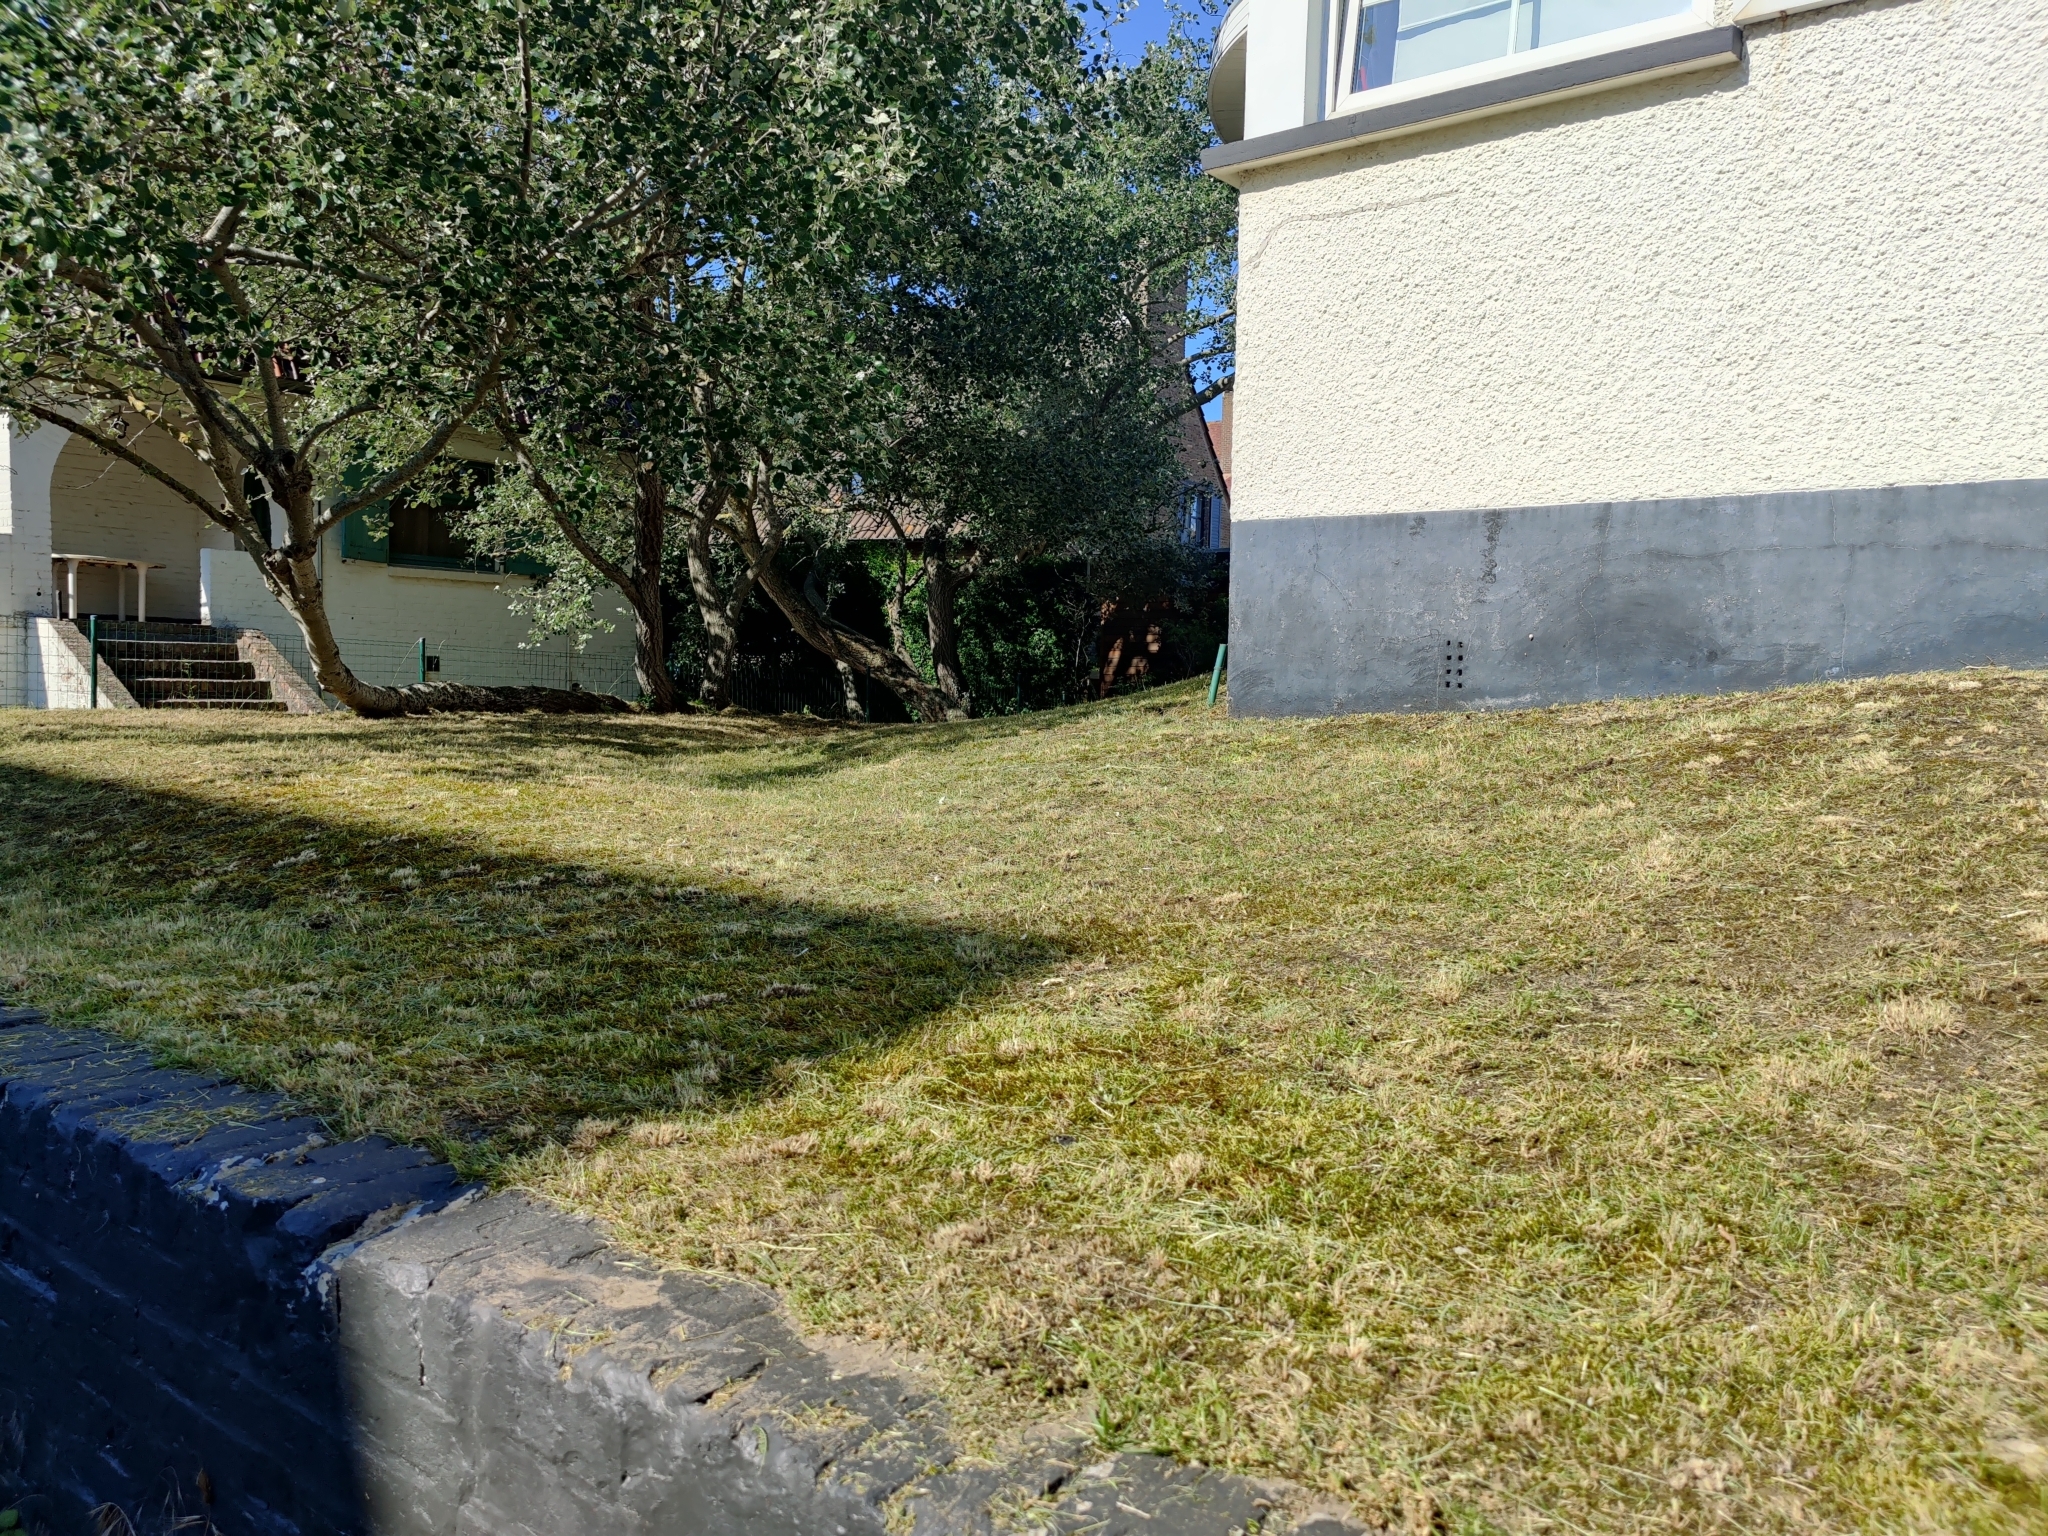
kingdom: Plantae
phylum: Tracheophyta
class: Liliopsida
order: Asparagales
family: Orchidaceae
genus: Himantoglossum
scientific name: Himantoglossum hircinum
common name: Lizard orchid
